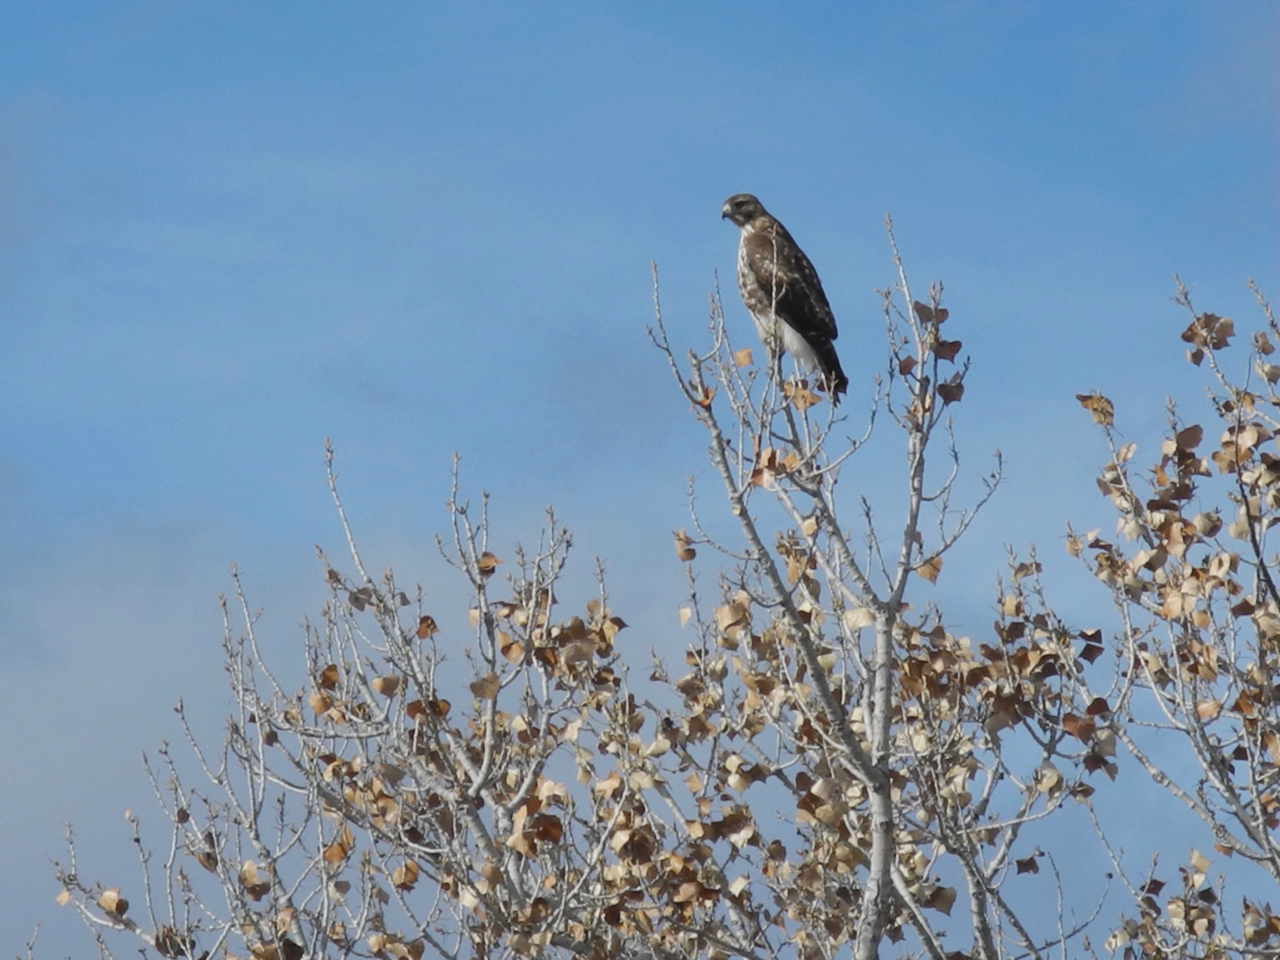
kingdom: Animalia
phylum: Chordata
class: Aves
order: Accipitriformes
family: Accipitridae
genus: Buteo
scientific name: Buteo jamaicensis
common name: Red-tailed hawk
